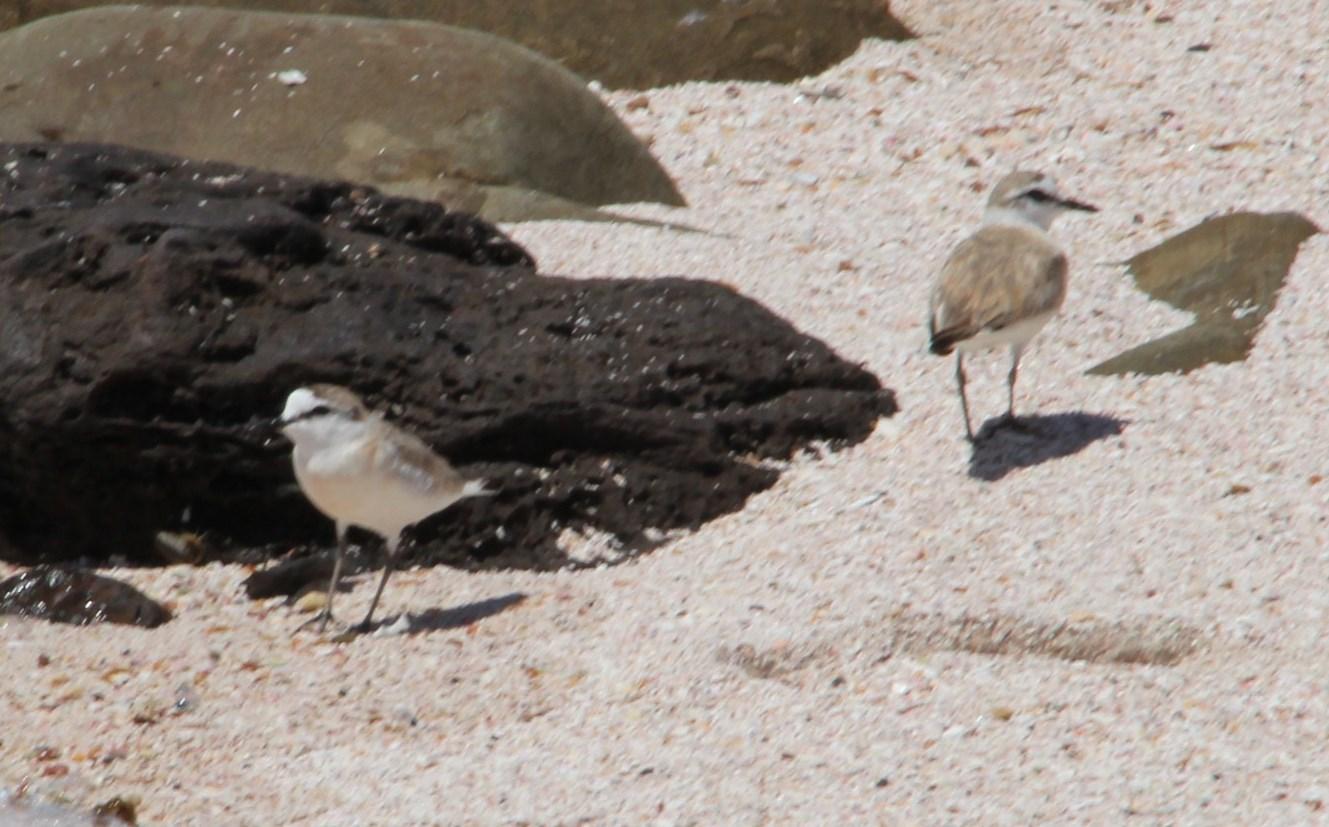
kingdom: Animalia
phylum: Chordata
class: Aves
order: Charadriiformes
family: Charadriidae
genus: Anarhynchus
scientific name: Anarhynchus
